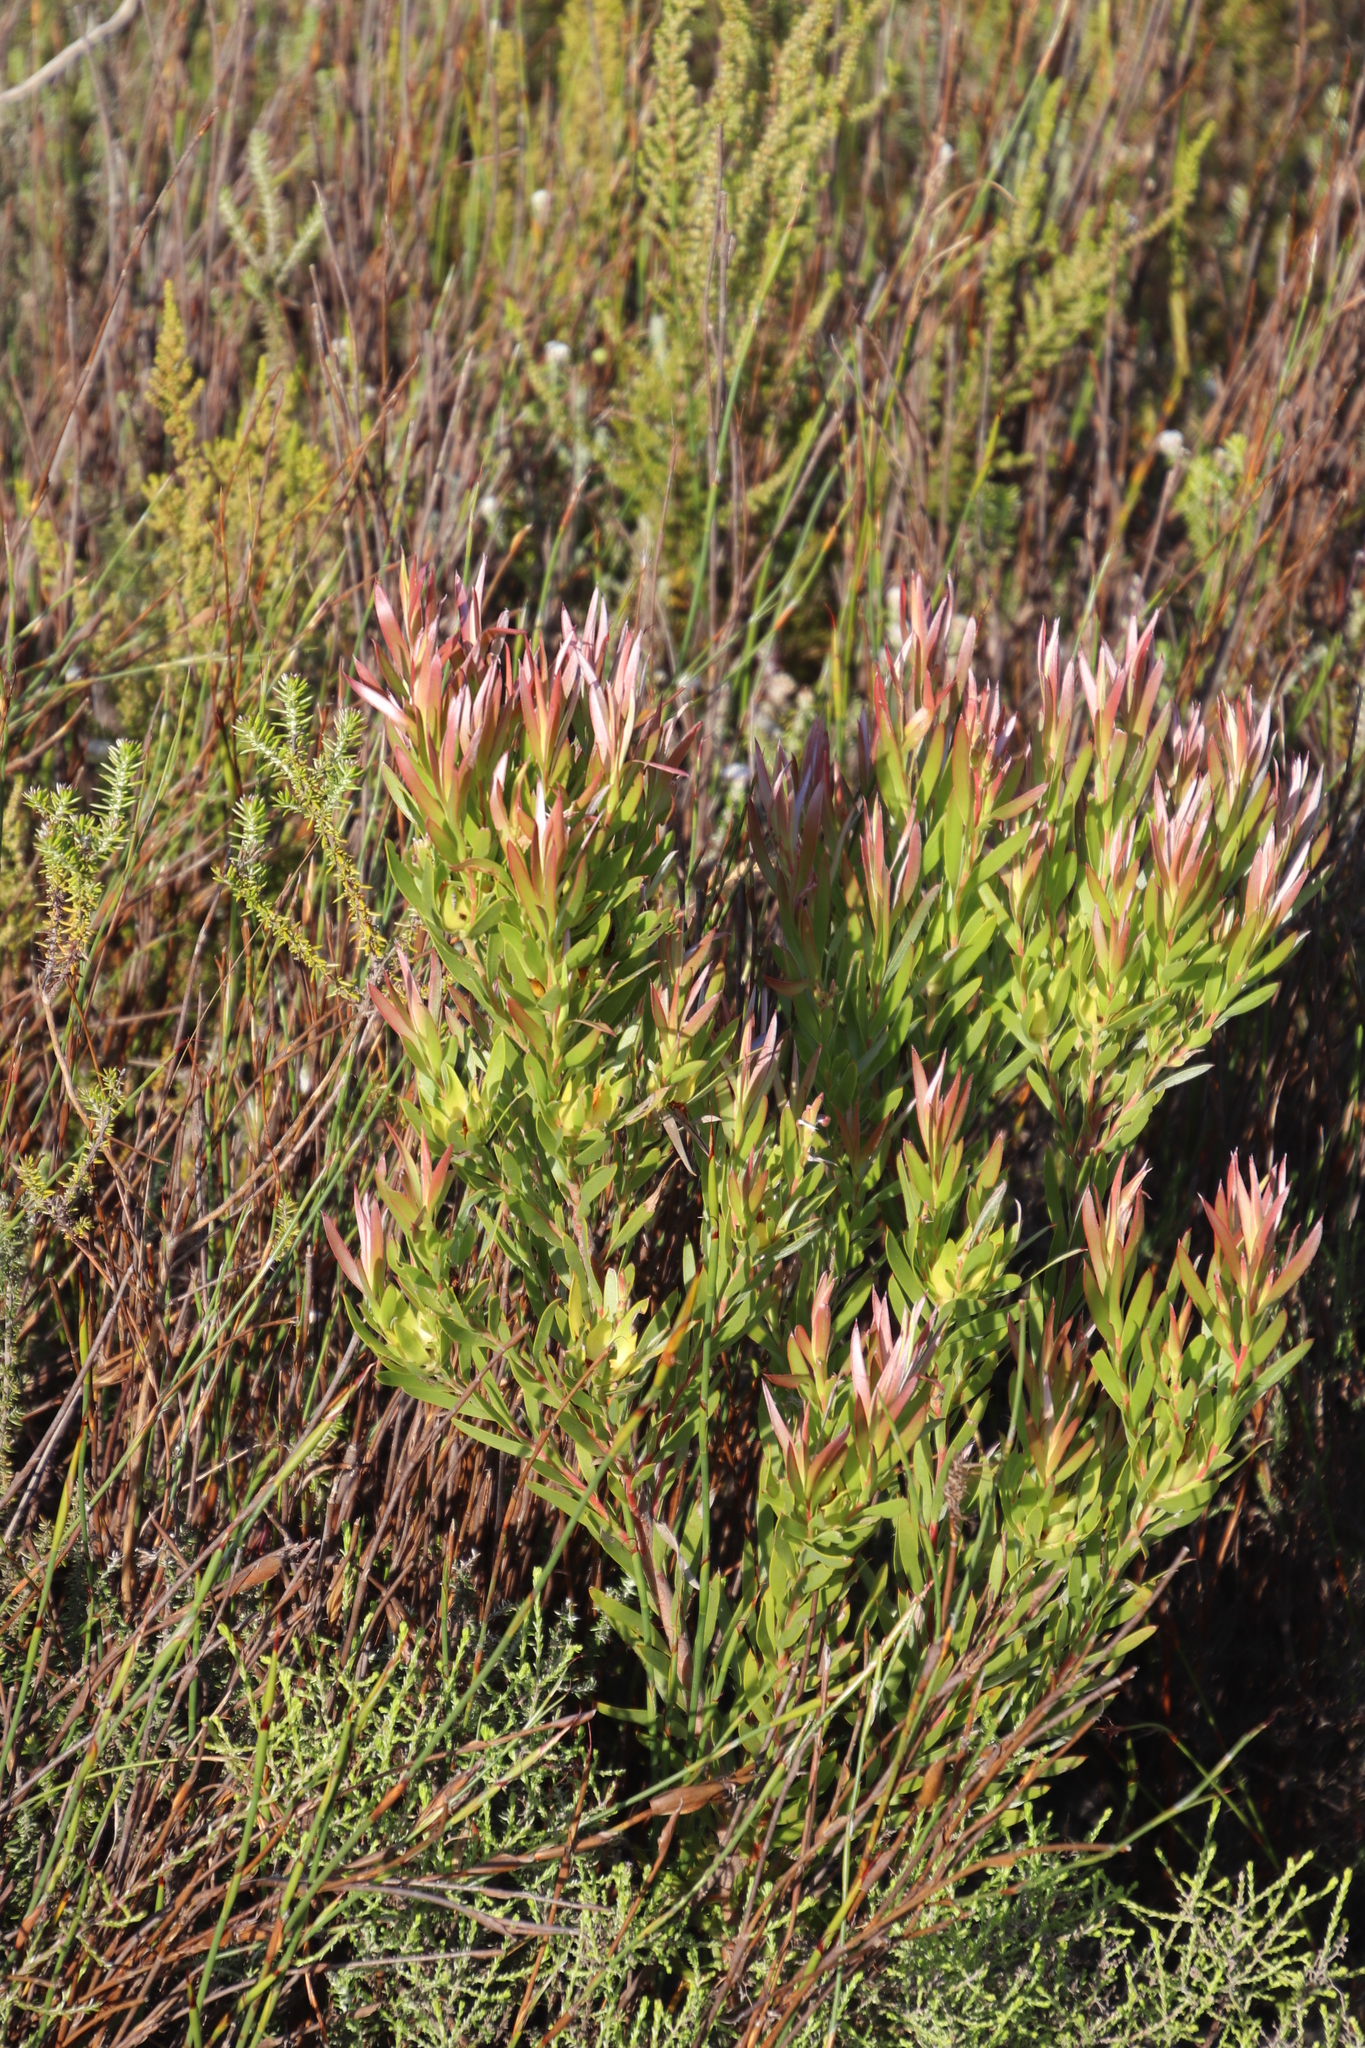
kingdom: Plantae
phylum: Tracheophyta
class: Magnoliopsida
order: Proteales
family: Proteaceae
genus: Leucadendron
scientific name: Leucadendron xanthoconus
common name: Sickle-leaf conebush
